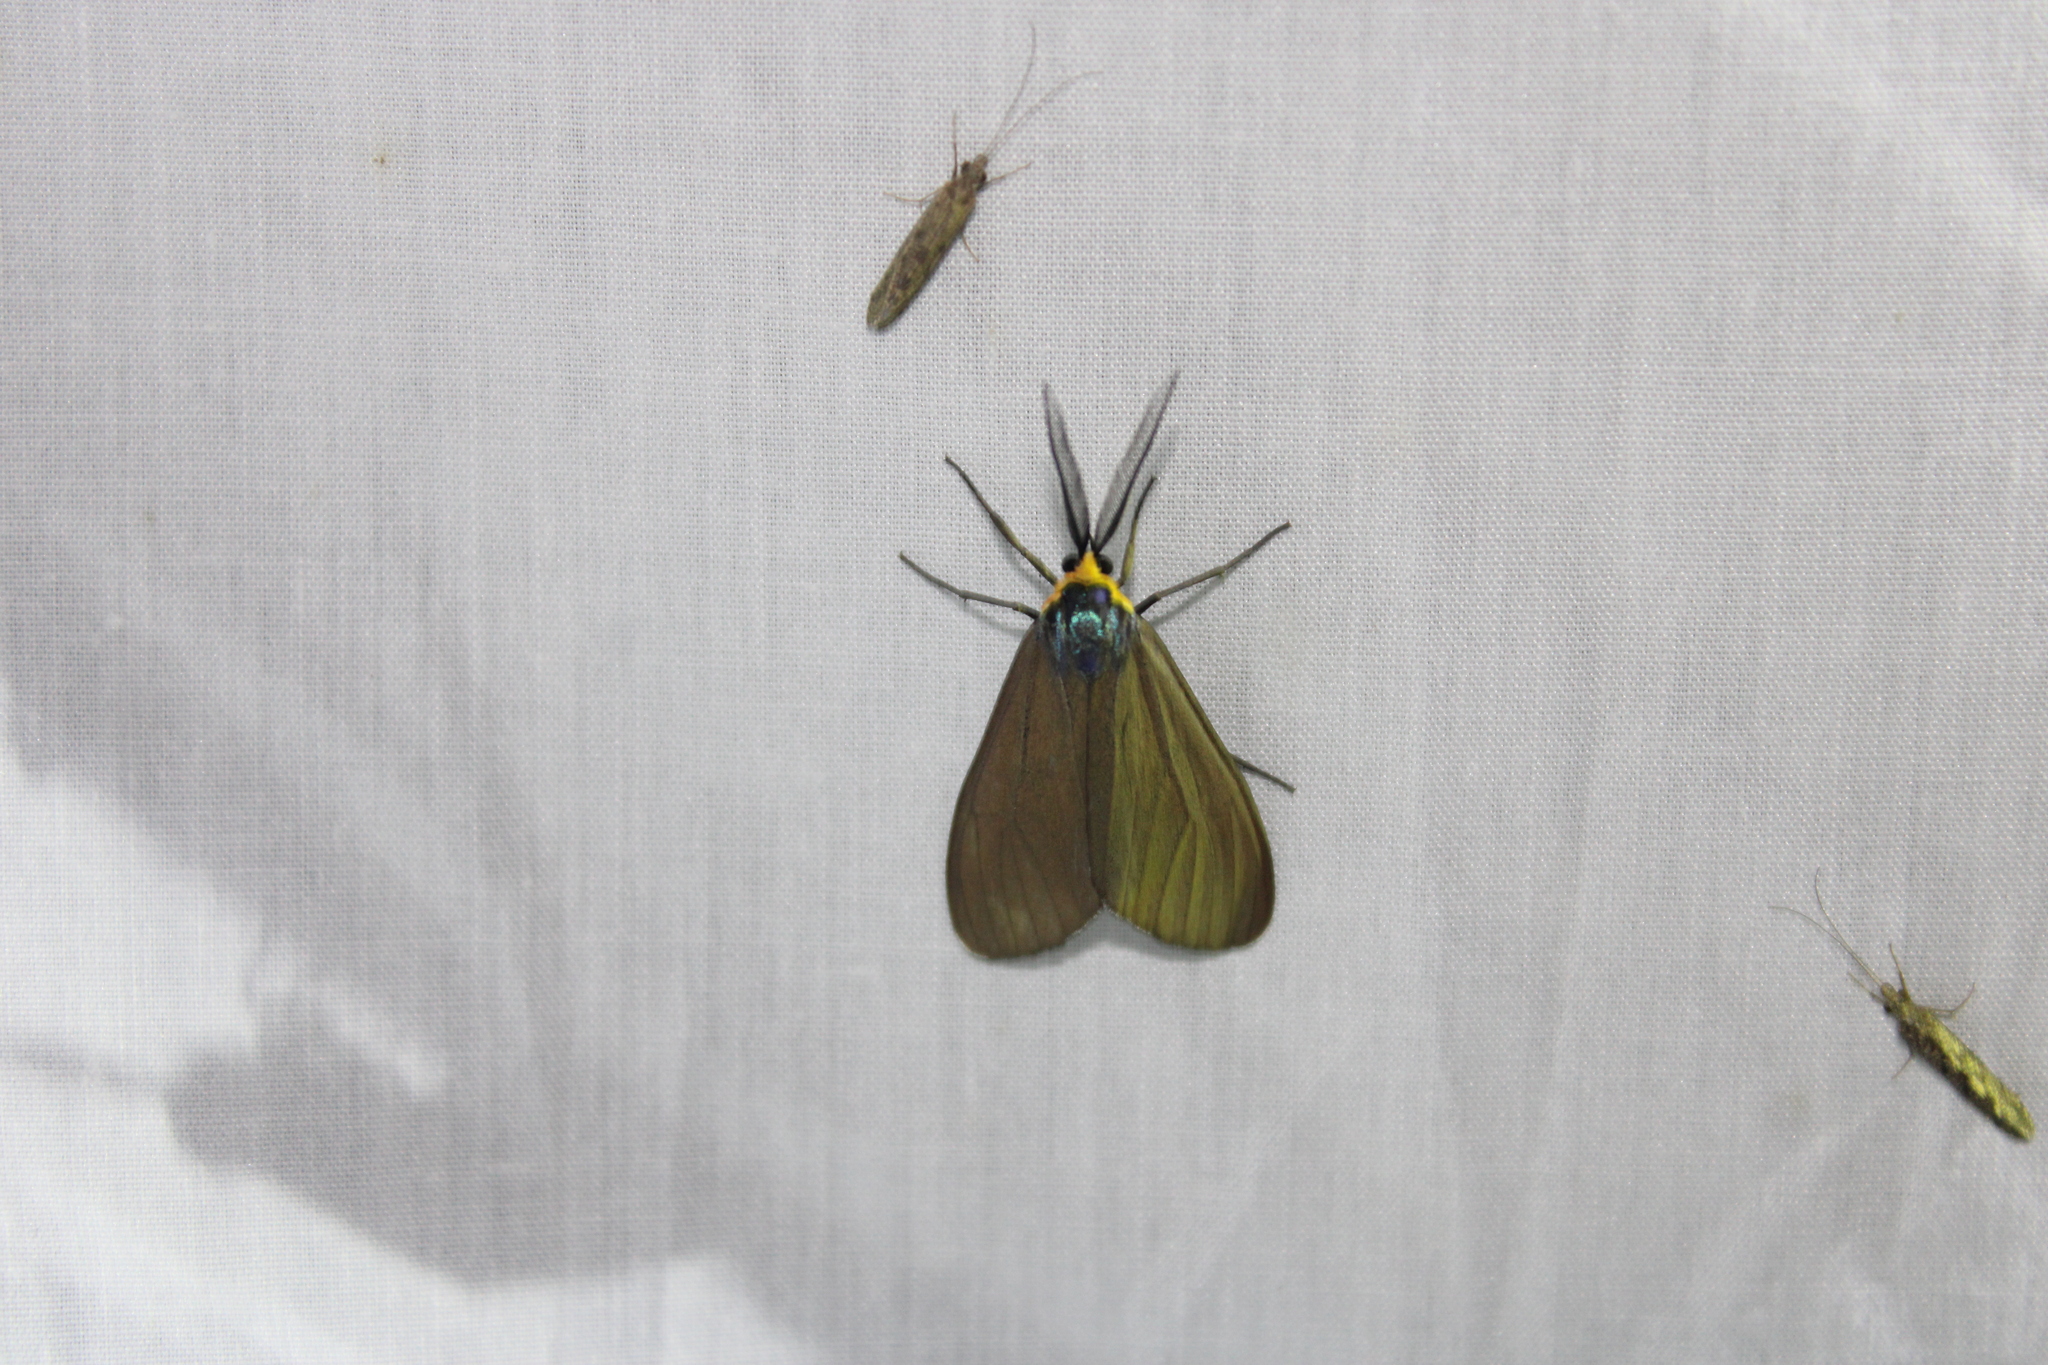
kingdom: Animalia
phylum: Arthropoda
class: Insecta
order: Lepidoptera
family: Erebidae
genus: Ctenucha
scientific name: Ctenucha virginica
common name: Virginia ctenucha moth
